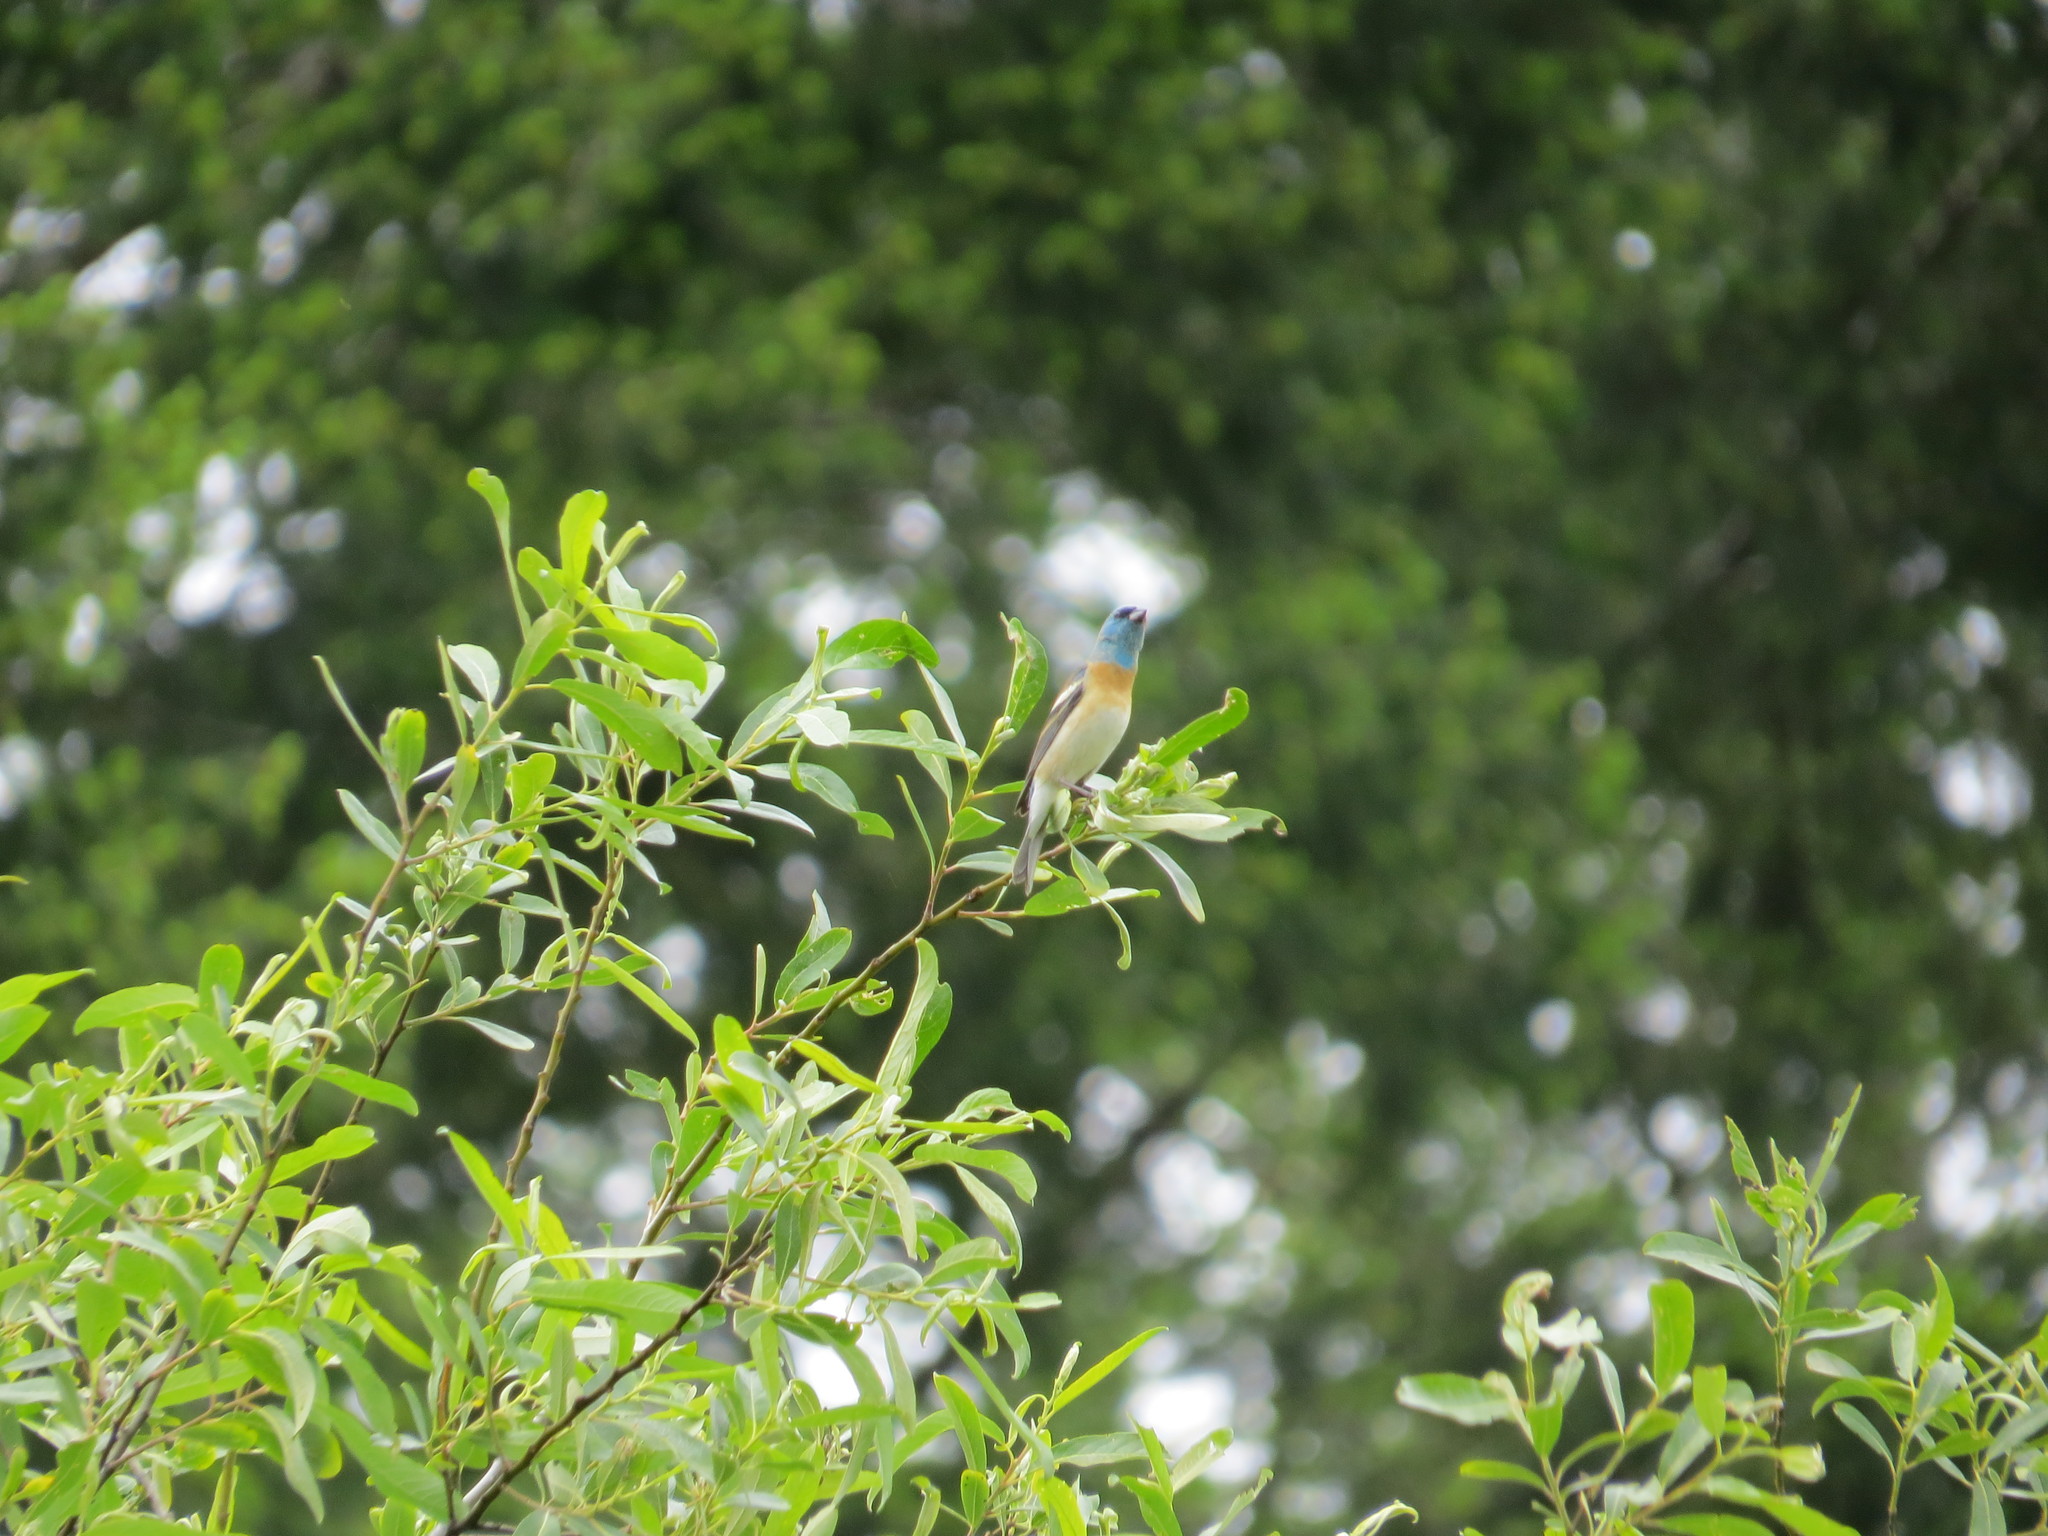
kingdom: Animalia
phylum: Chordata
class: Aves
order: Passeriformes
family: Cardinalidae
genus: Passerina
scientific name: Passerina amoena
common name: Lazuli bunting
